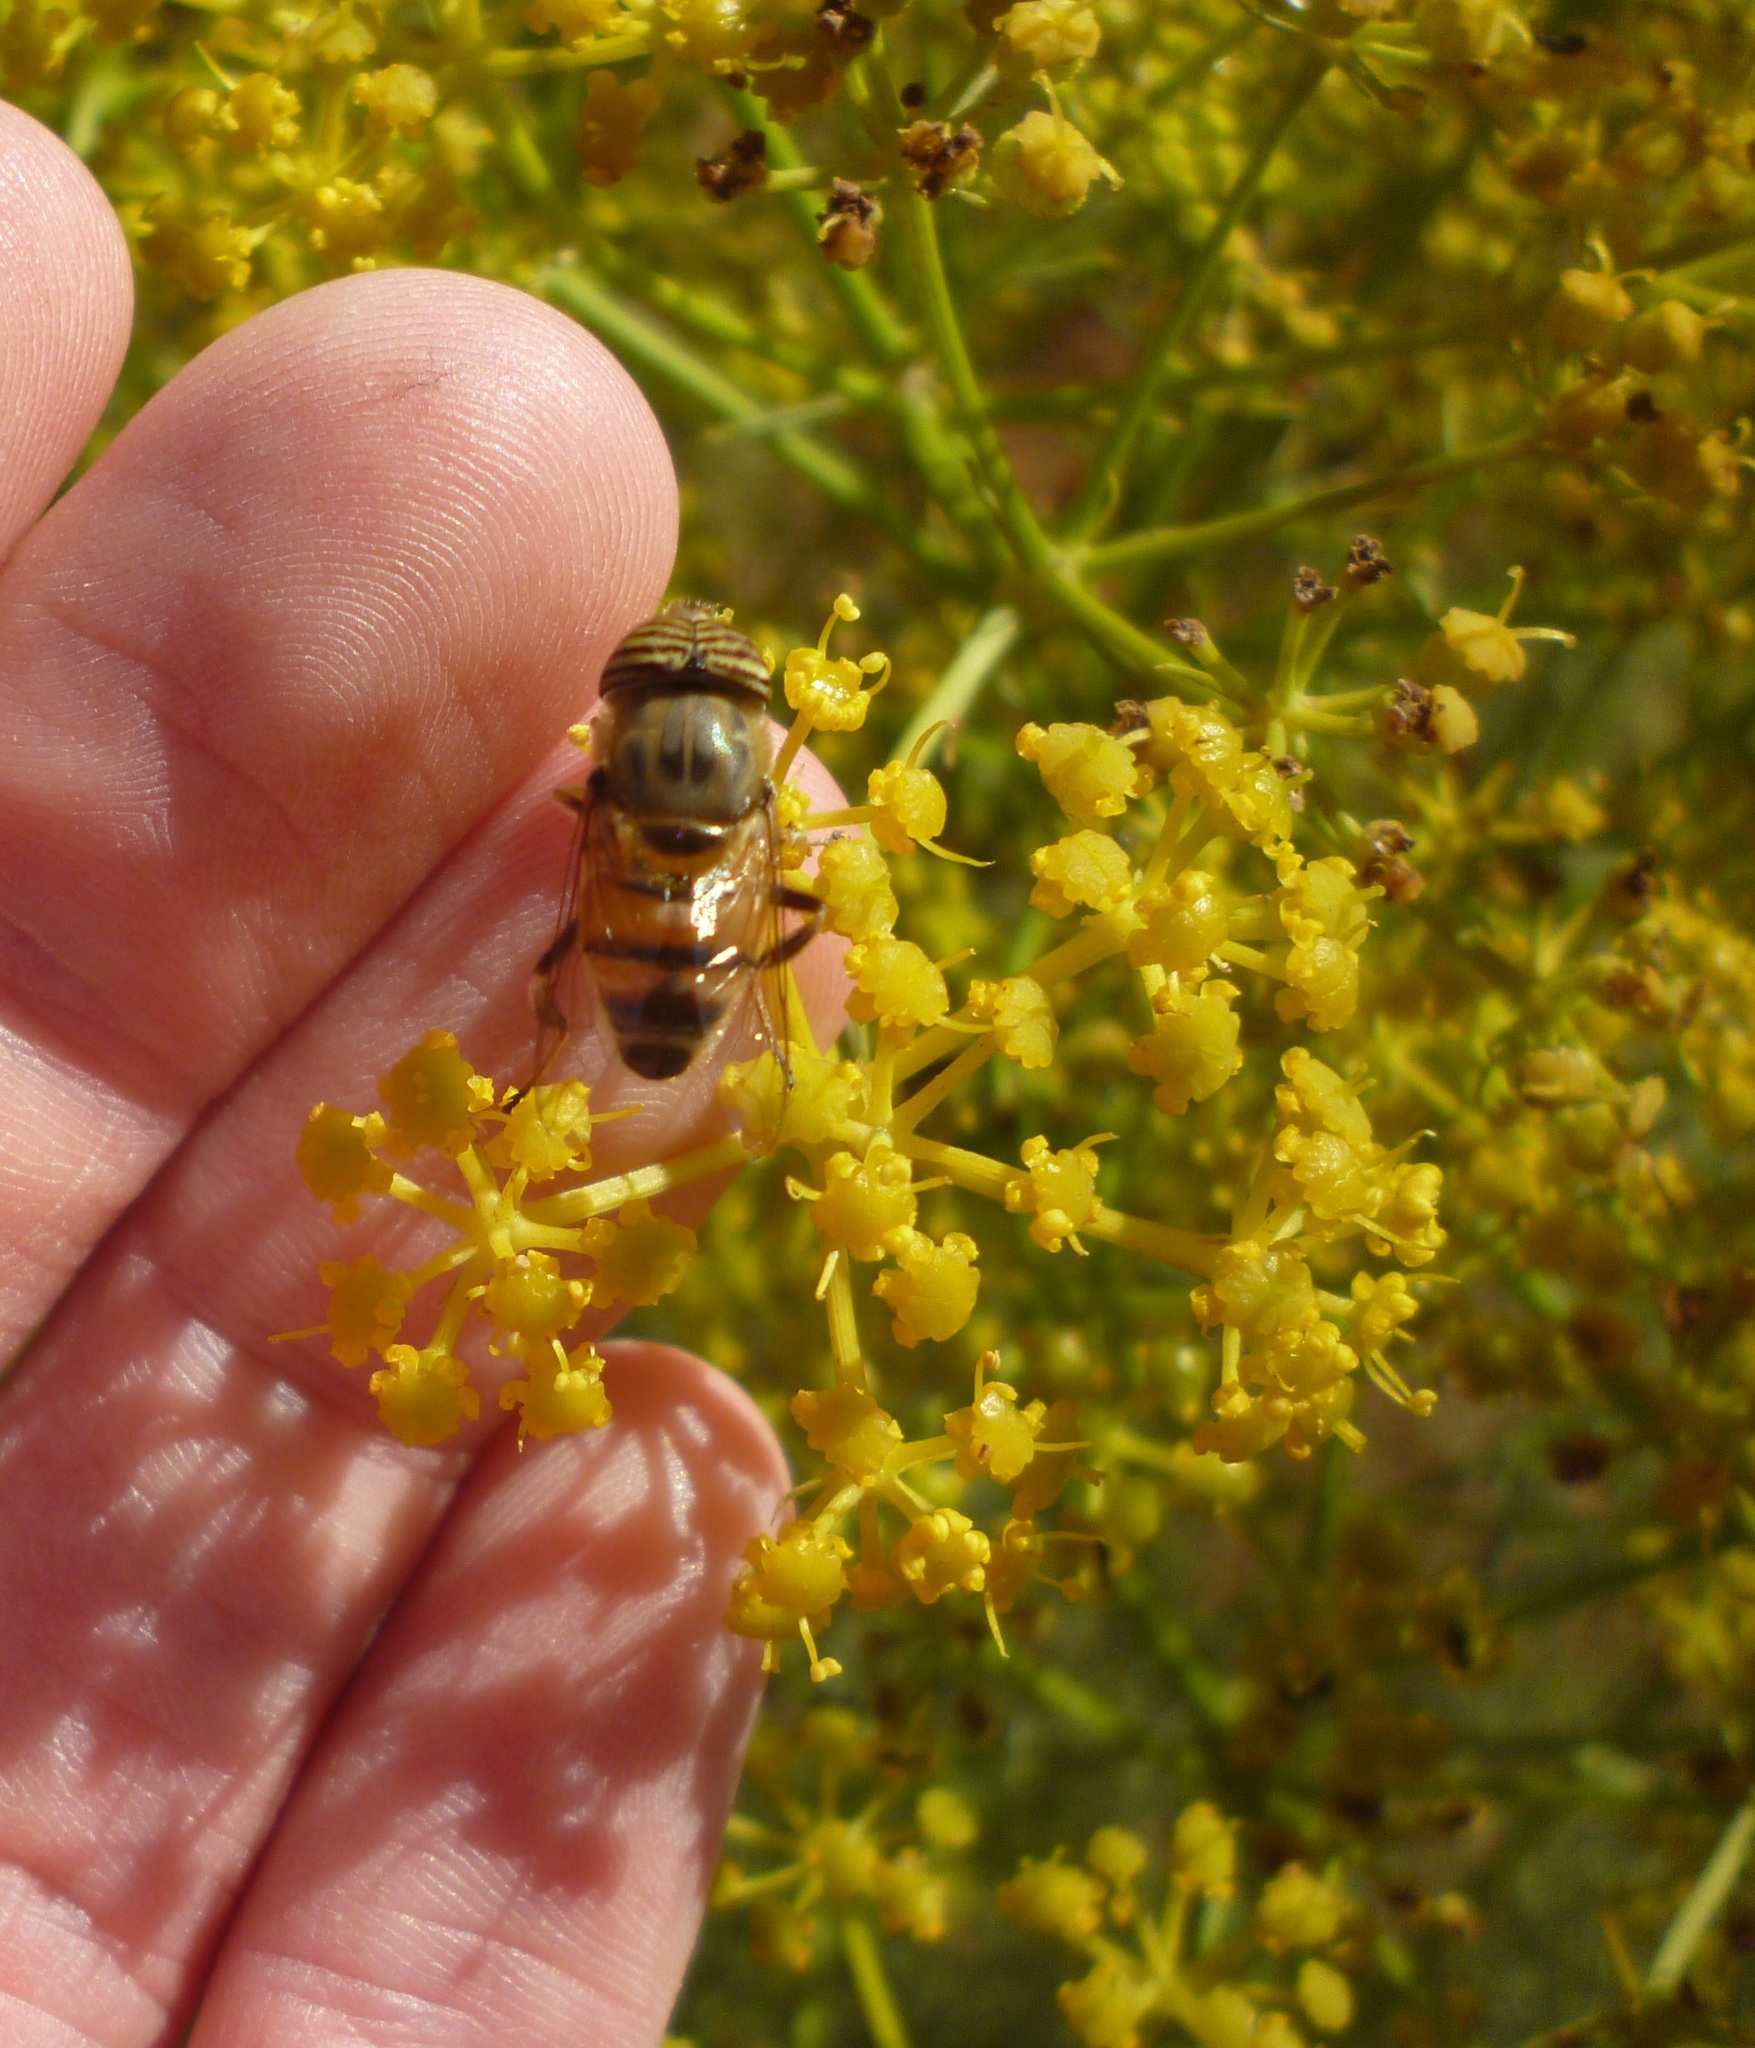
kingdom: Plantae
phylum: Tracheophyta
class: Magnoliopsida
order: Apiales
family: Apiaceae
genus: Foeniculum
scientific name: Foeniculum vulgare
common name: Fennel
